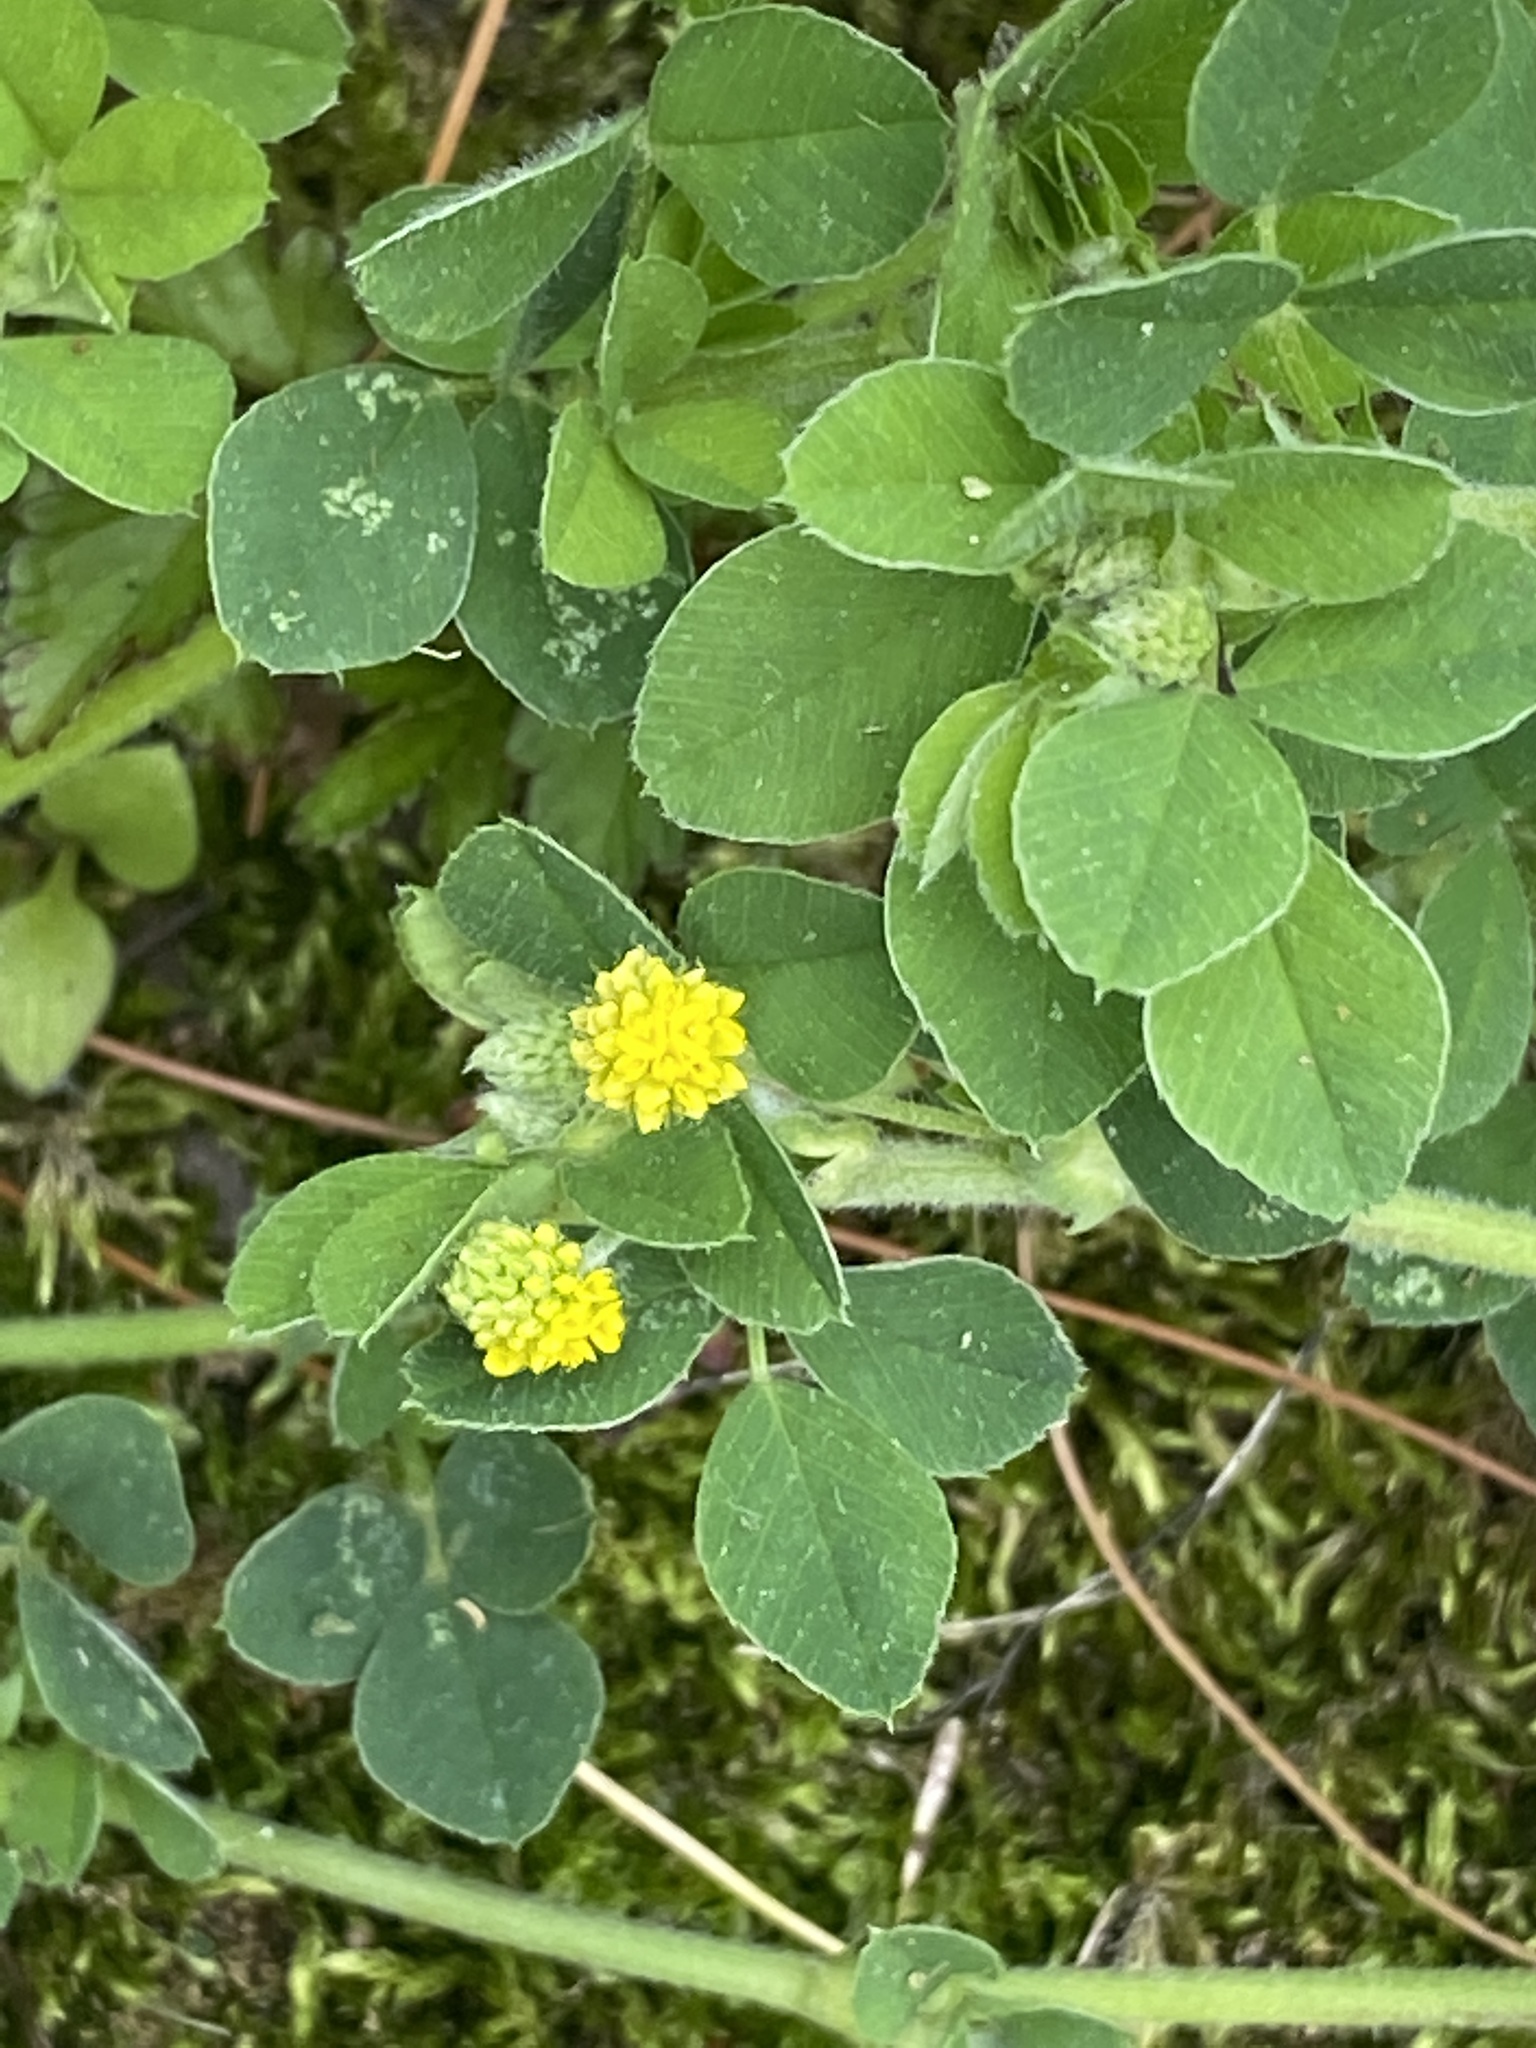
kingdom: Plantae
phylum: Tracheophyta
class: Magnoliopsida
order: Fabales
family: Fabaceae
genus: Medicago
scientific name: Medicago lupulina
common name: Black medick
